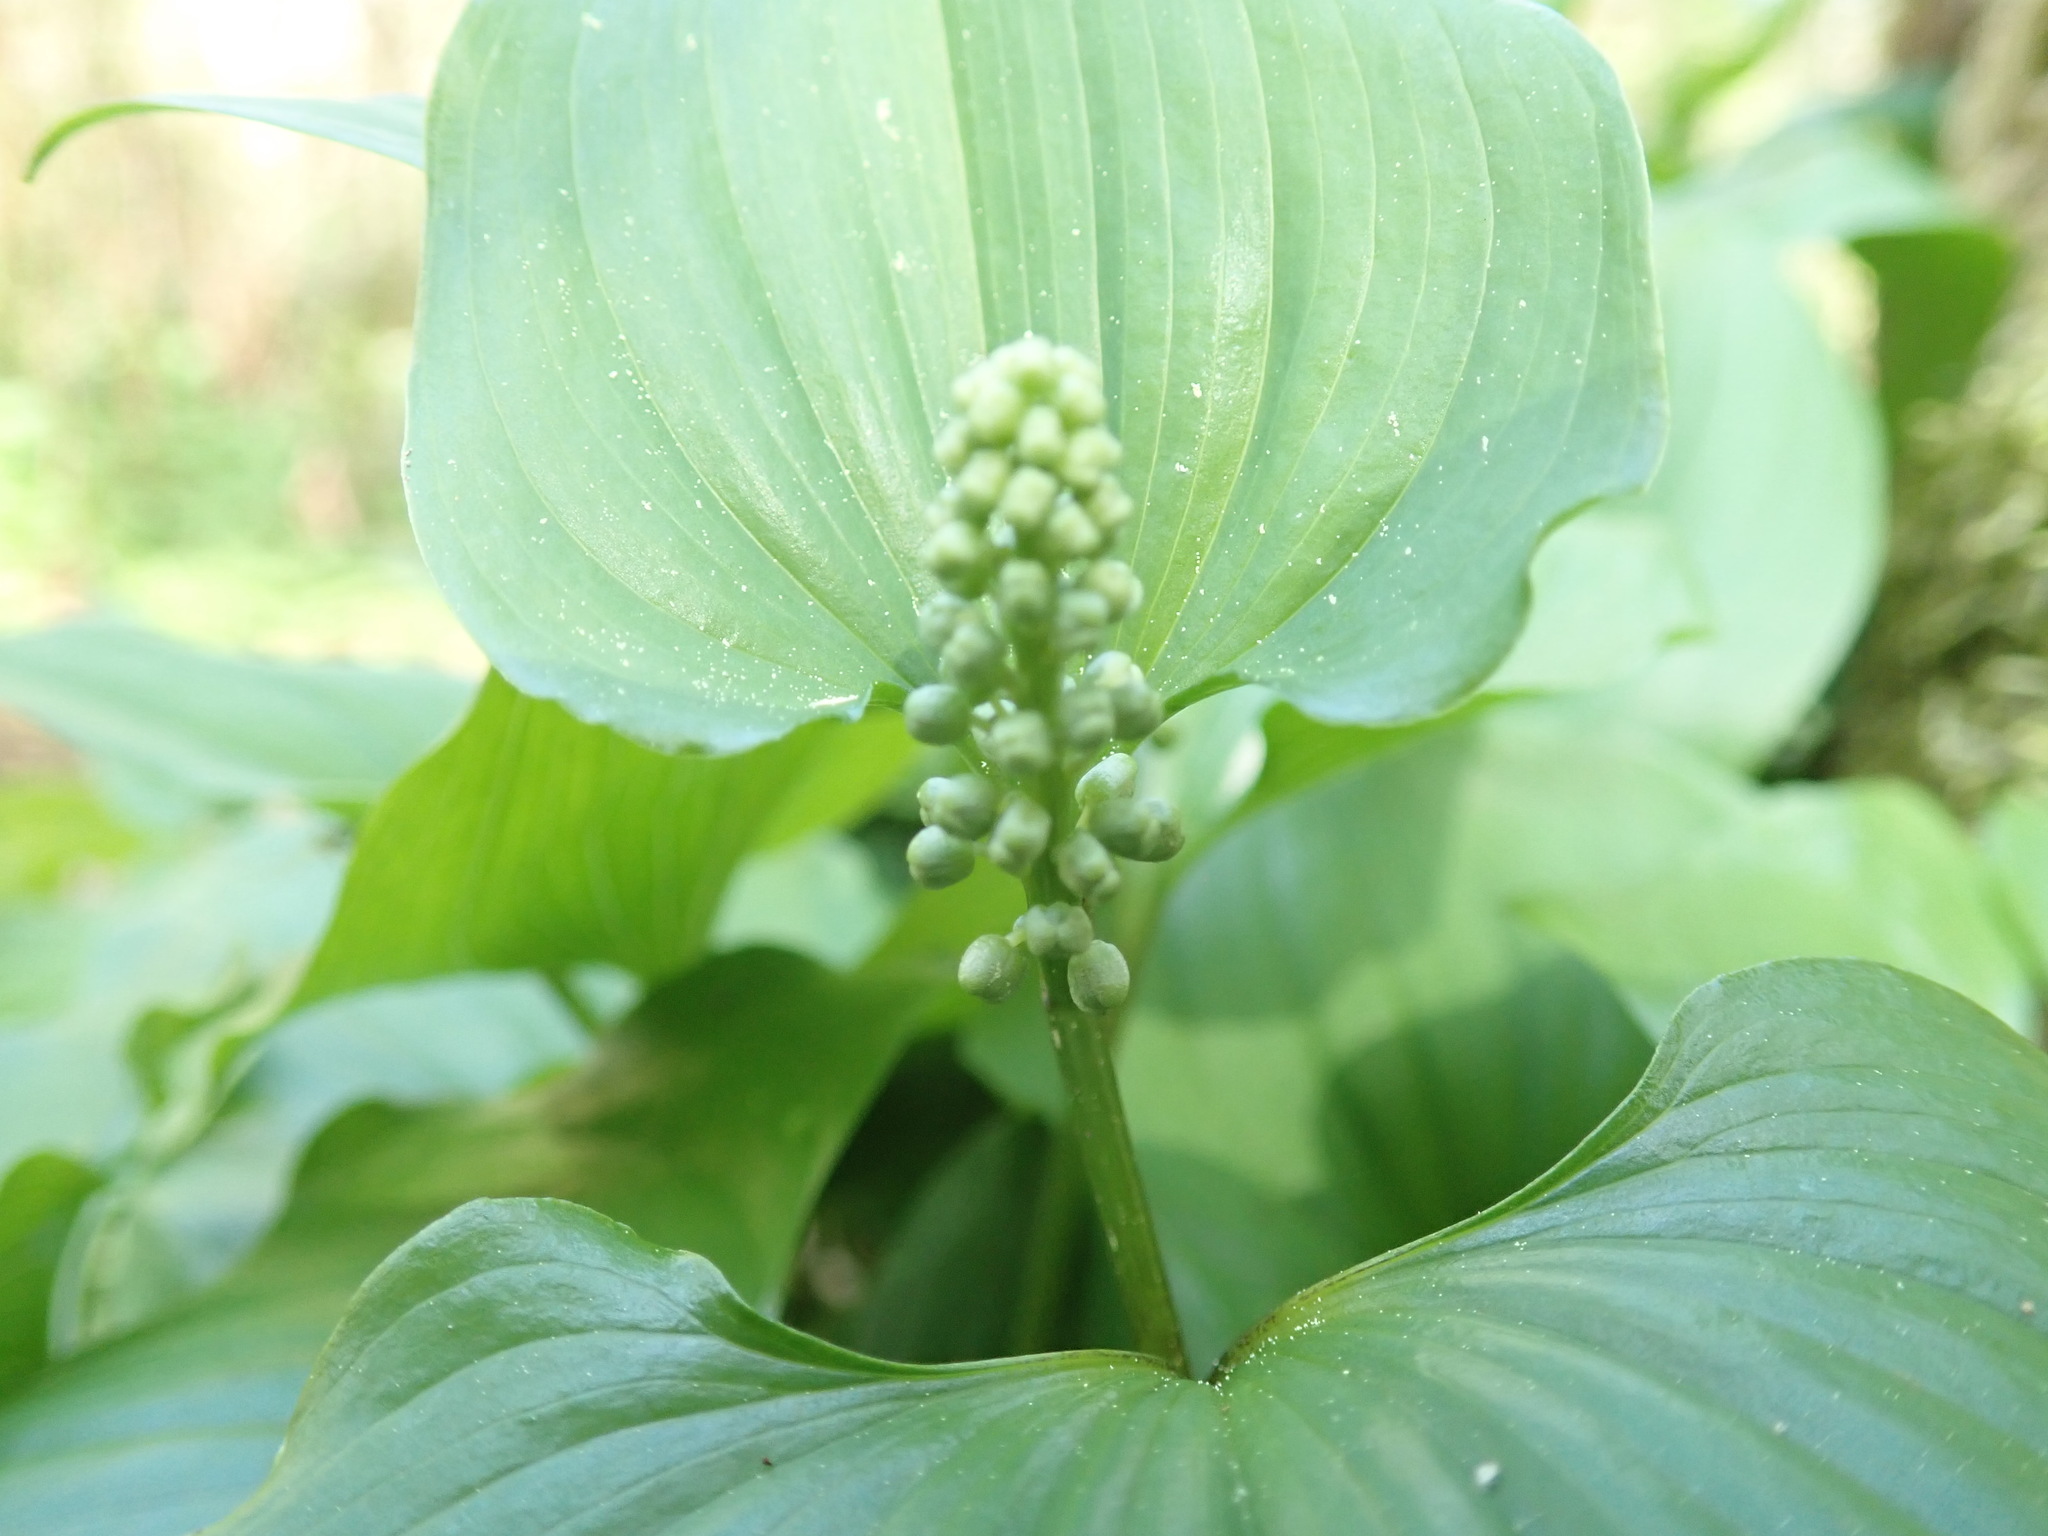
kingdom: Plantae
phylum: Tracheophyta
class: Liliopsida
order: Asparagales
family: Asparagaceae
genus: Maianthemum
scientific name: Maianthemum dilatatum
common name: False lily-of-the-valley
